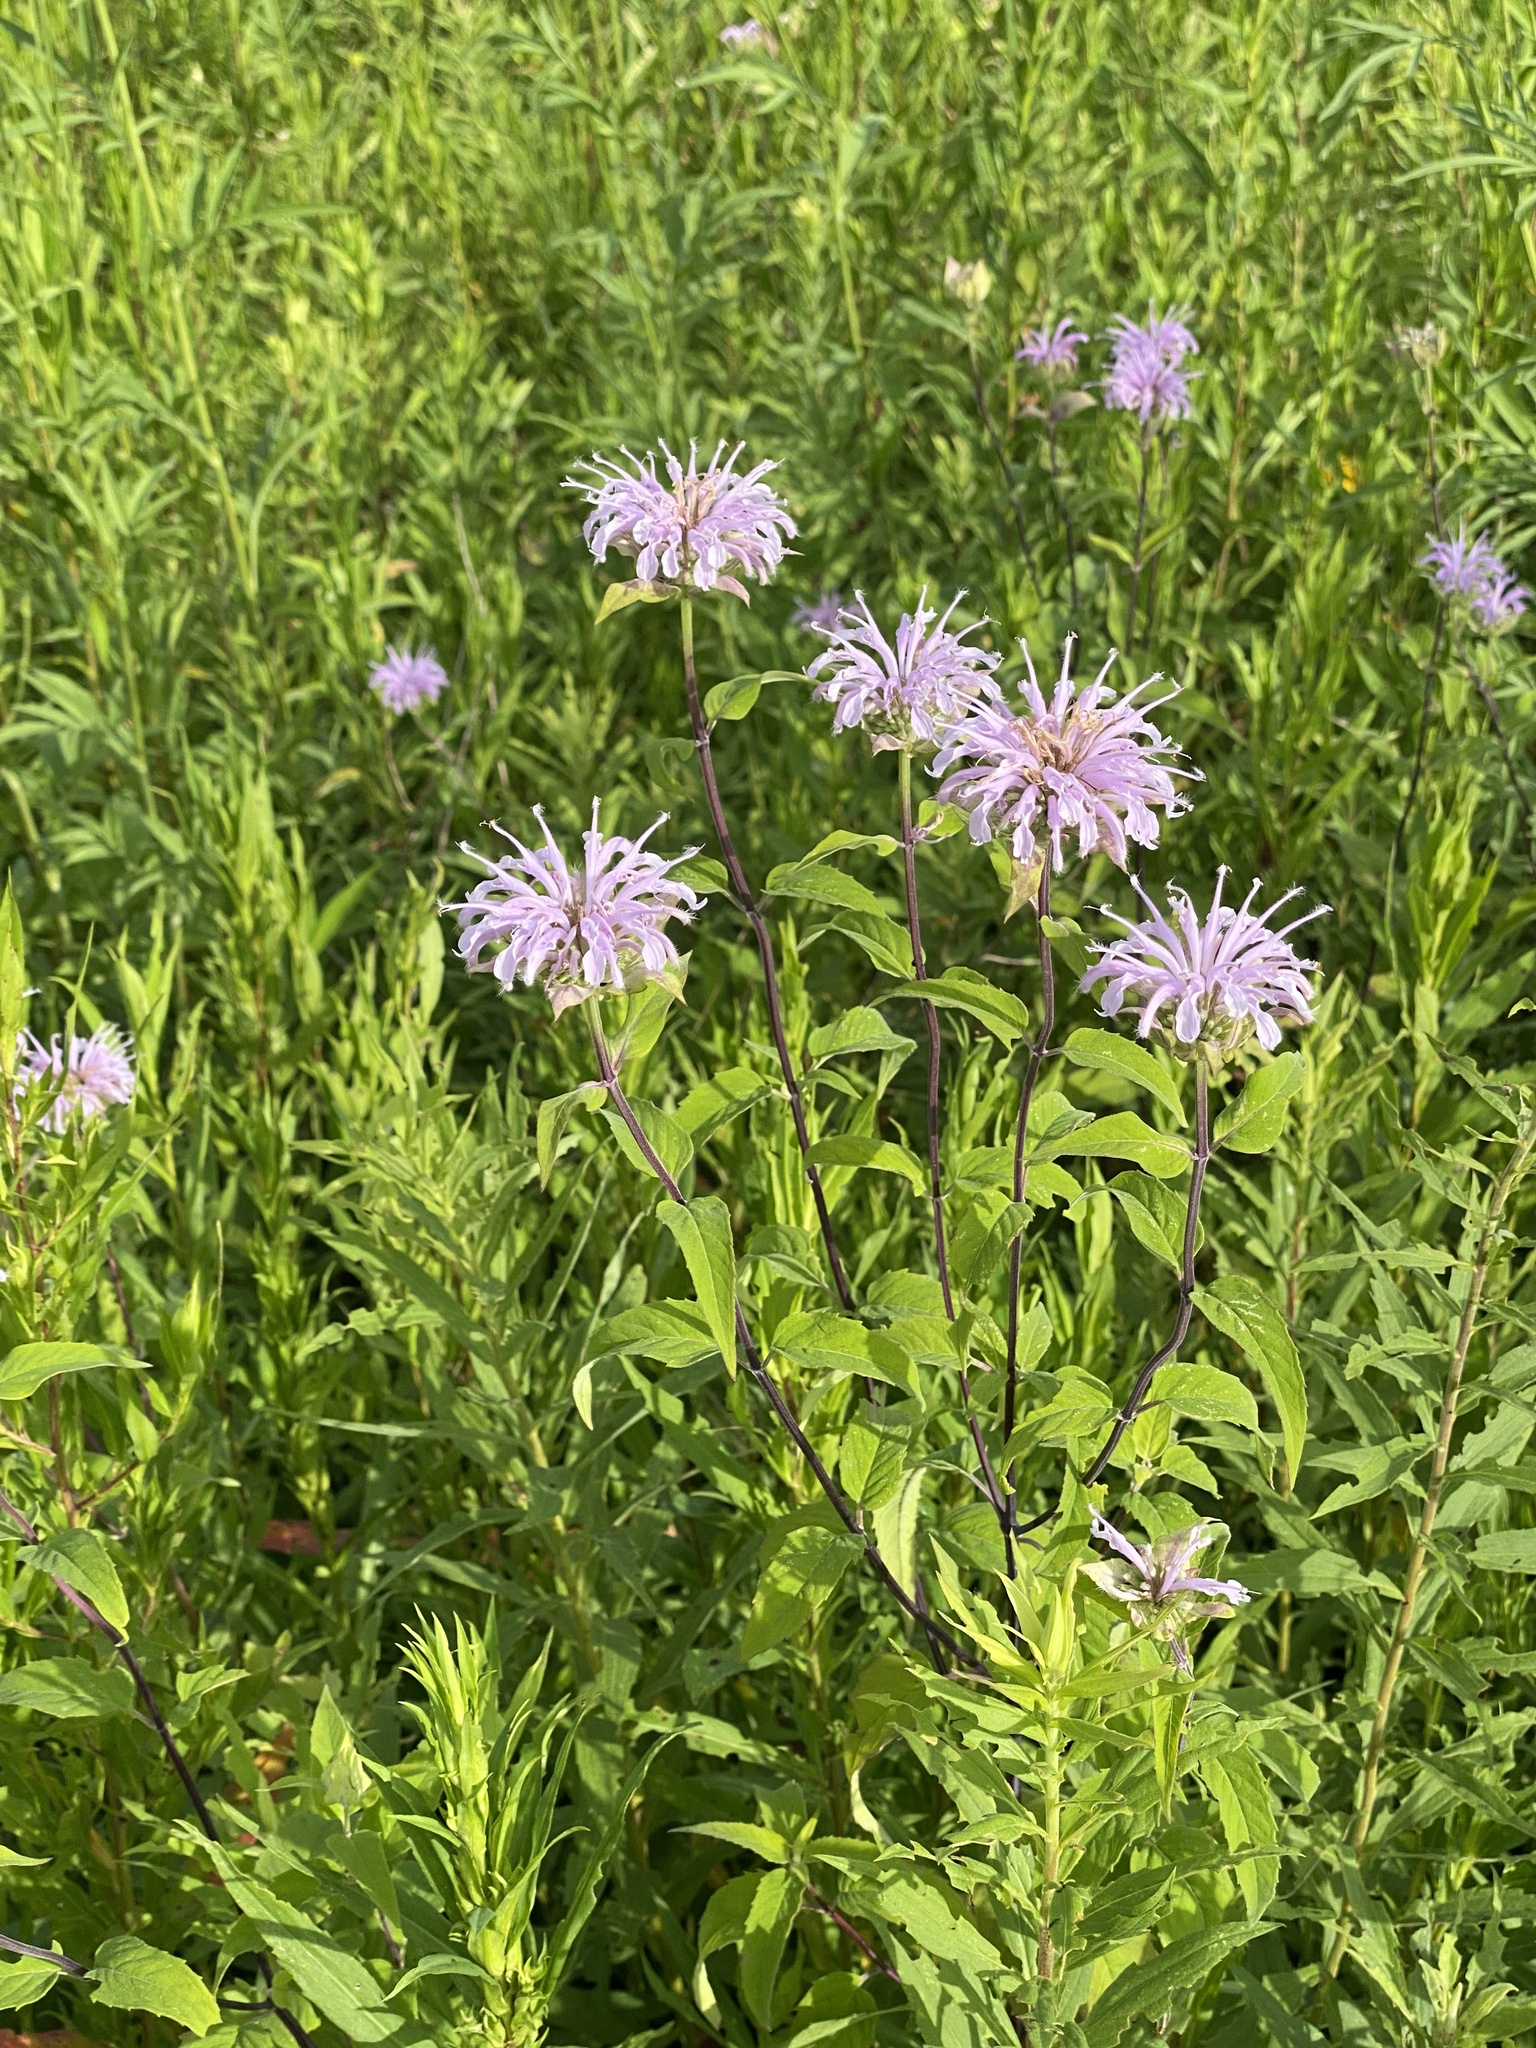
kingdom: Plantae
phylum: Tracheophyta
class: Magnoliopsida
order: Lamiales
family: Lamiaceae
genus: Monarda
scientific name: Monarda fistulosa
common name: Purple beebalm
